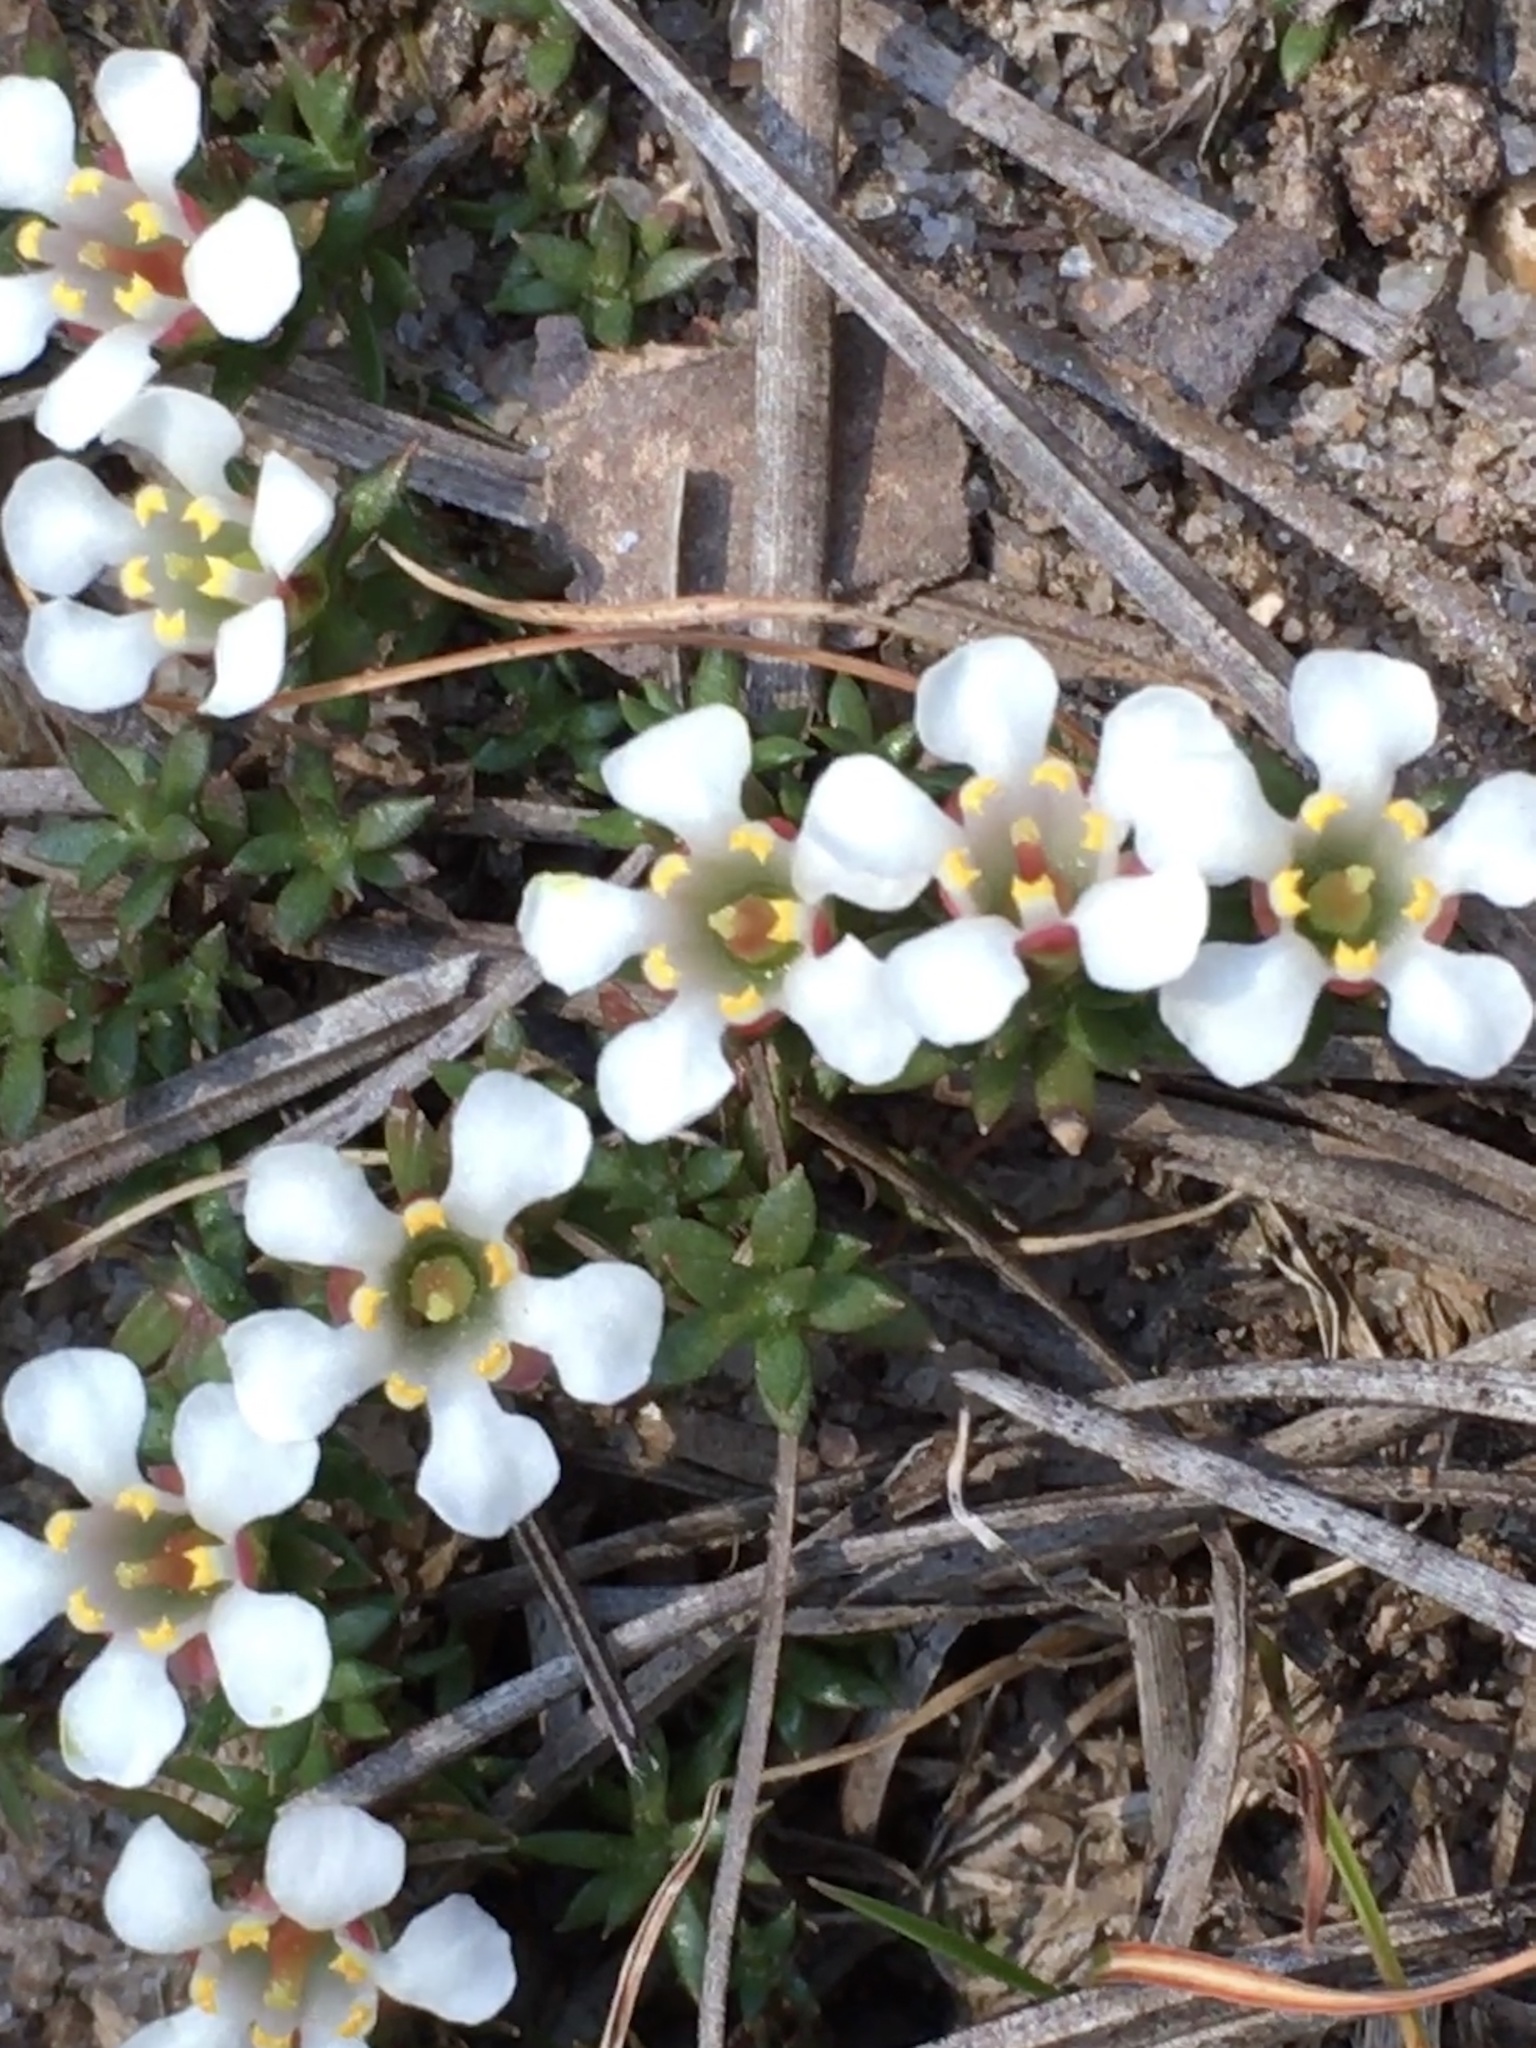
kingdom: Plantae
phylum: Tracheophyta
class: Magnoliopsida
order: Ericales
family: Diapensiaceae
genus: Pyxidanthera
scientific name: Pyxidanthera brevifolia
